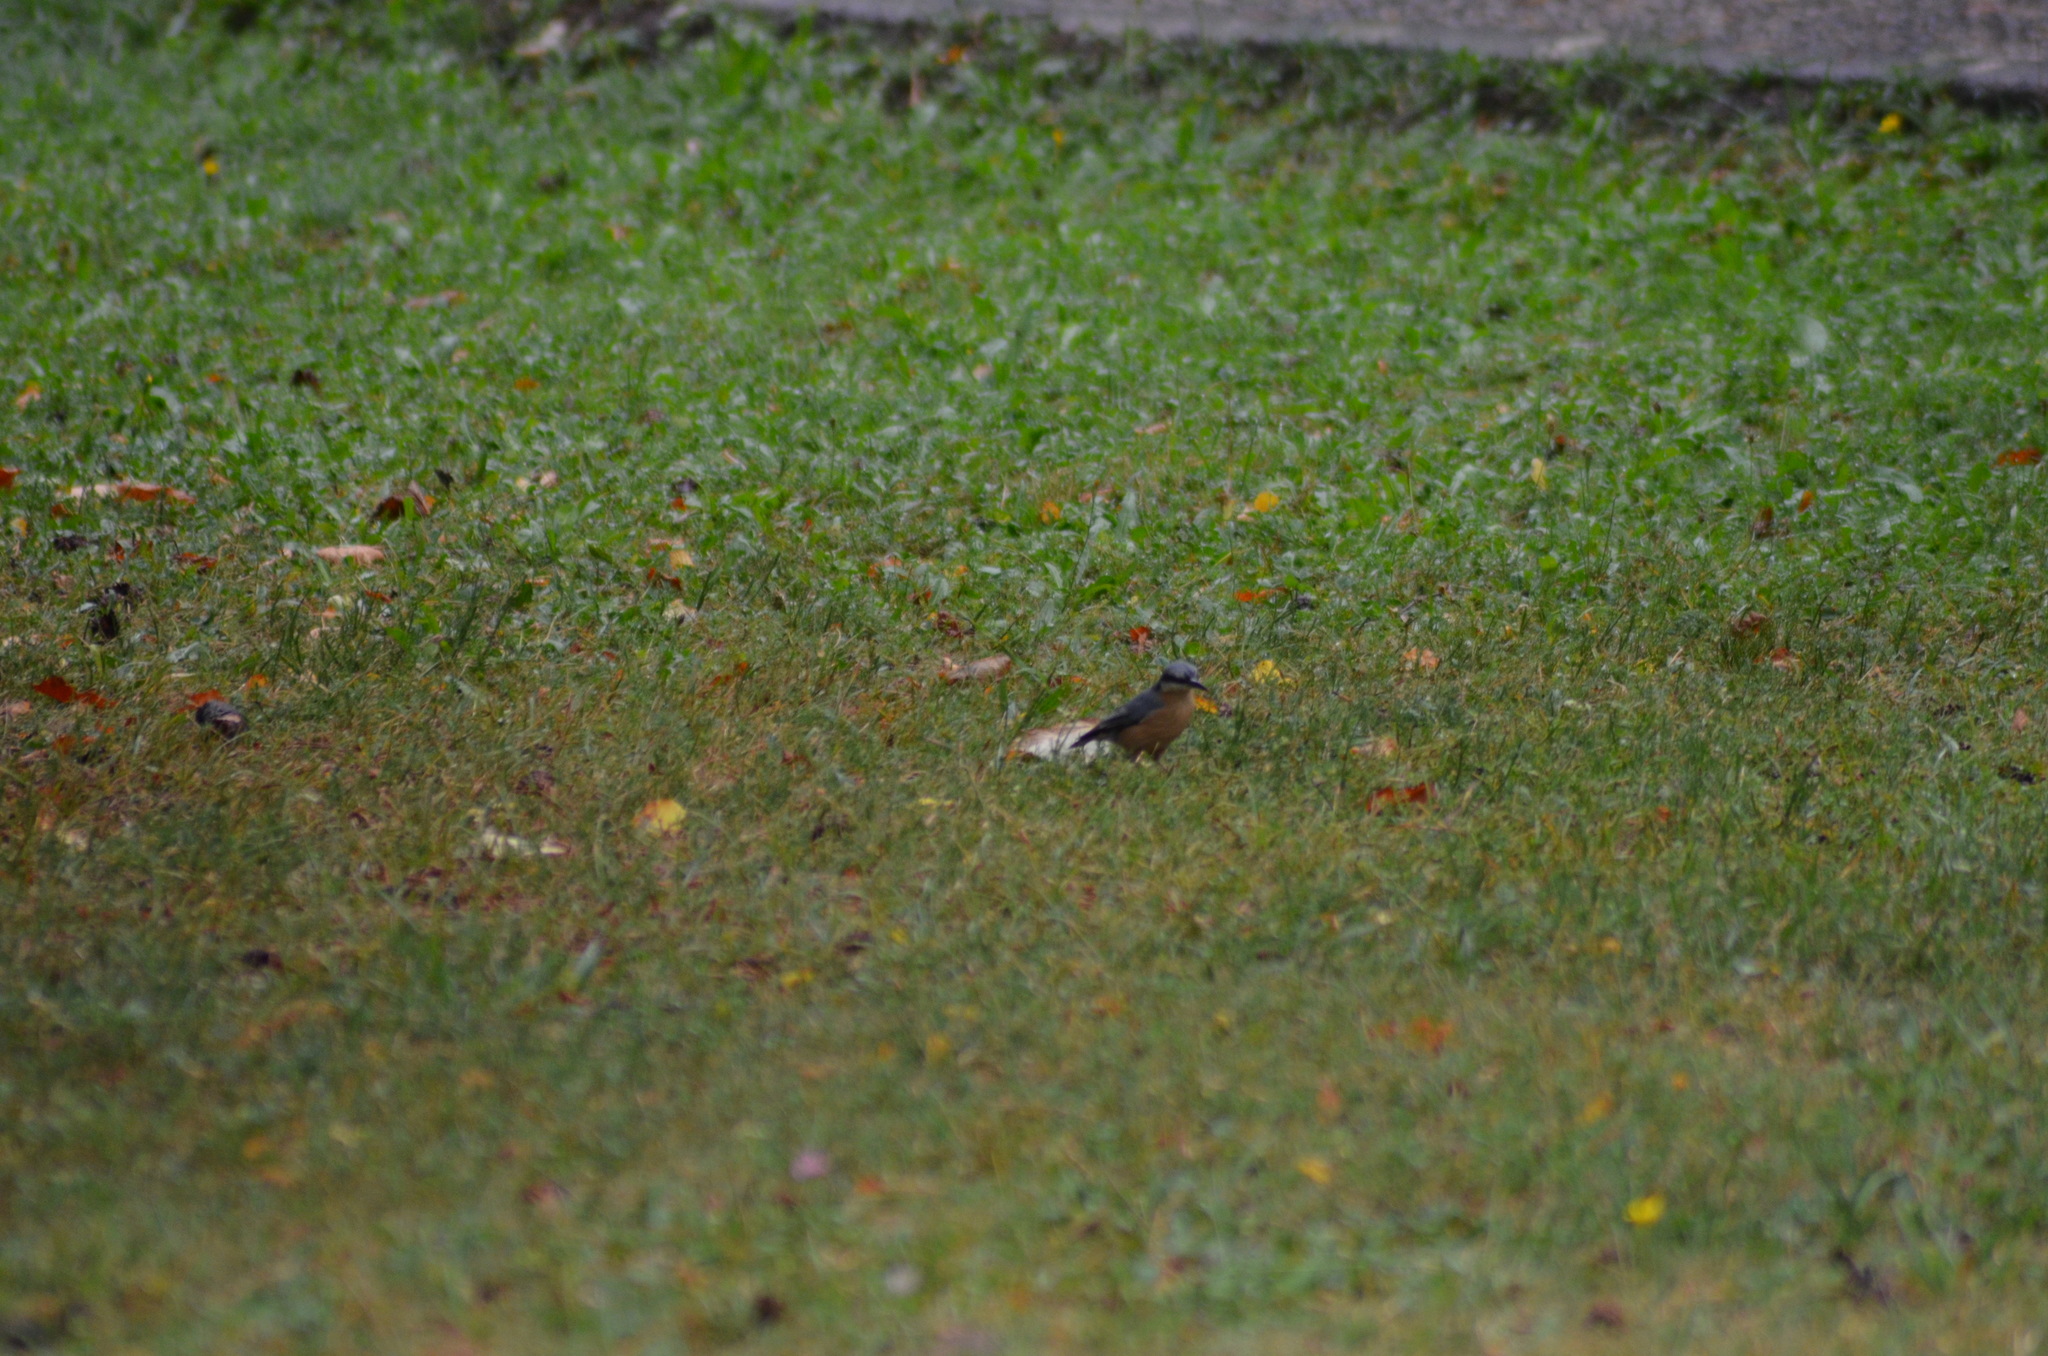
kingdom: Animalia
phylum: Chordata
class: Aves
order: Passeriformes
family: Sittidae
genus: Sitta
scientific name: Sitta europaea
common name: Eurasian nuthatch
